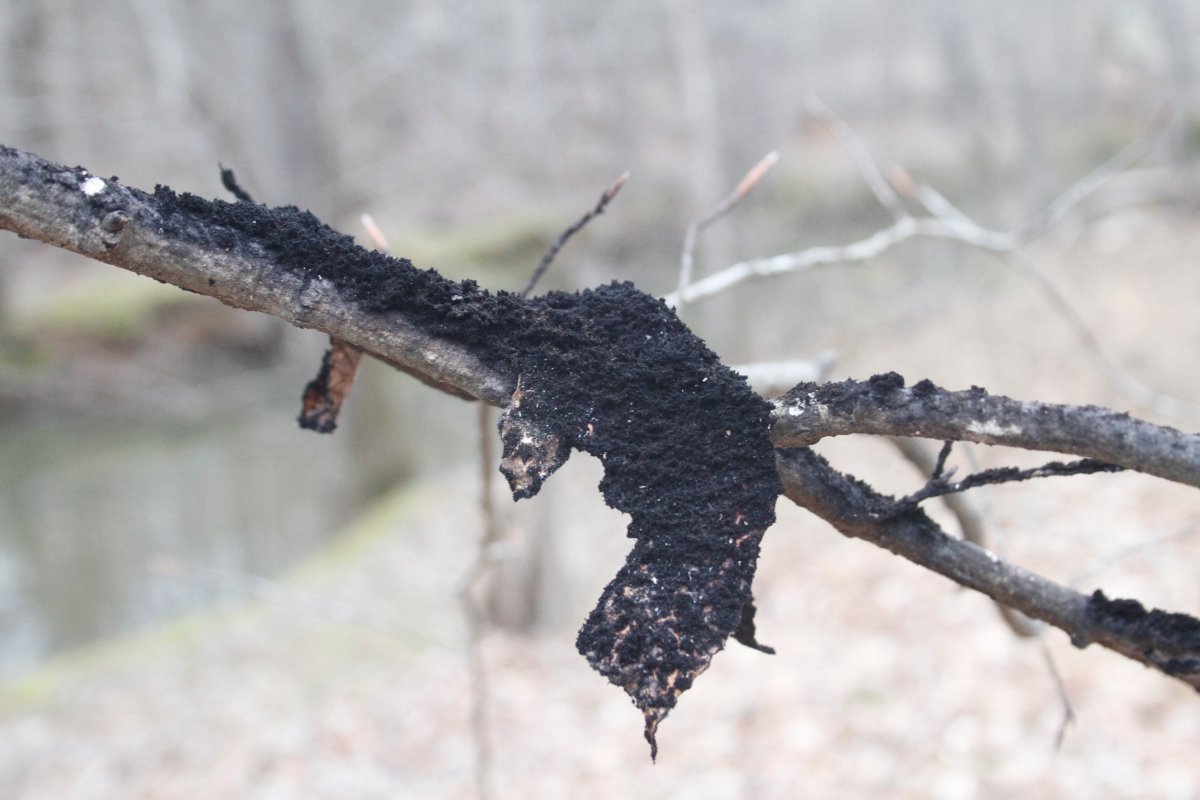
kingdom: Fungi
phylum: Ascomycota
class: Dothideomycetes
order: Capnodiales
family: Capnodiaceae
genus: Scorias
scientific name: Scorias spongiosa
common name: Black sooty mold
